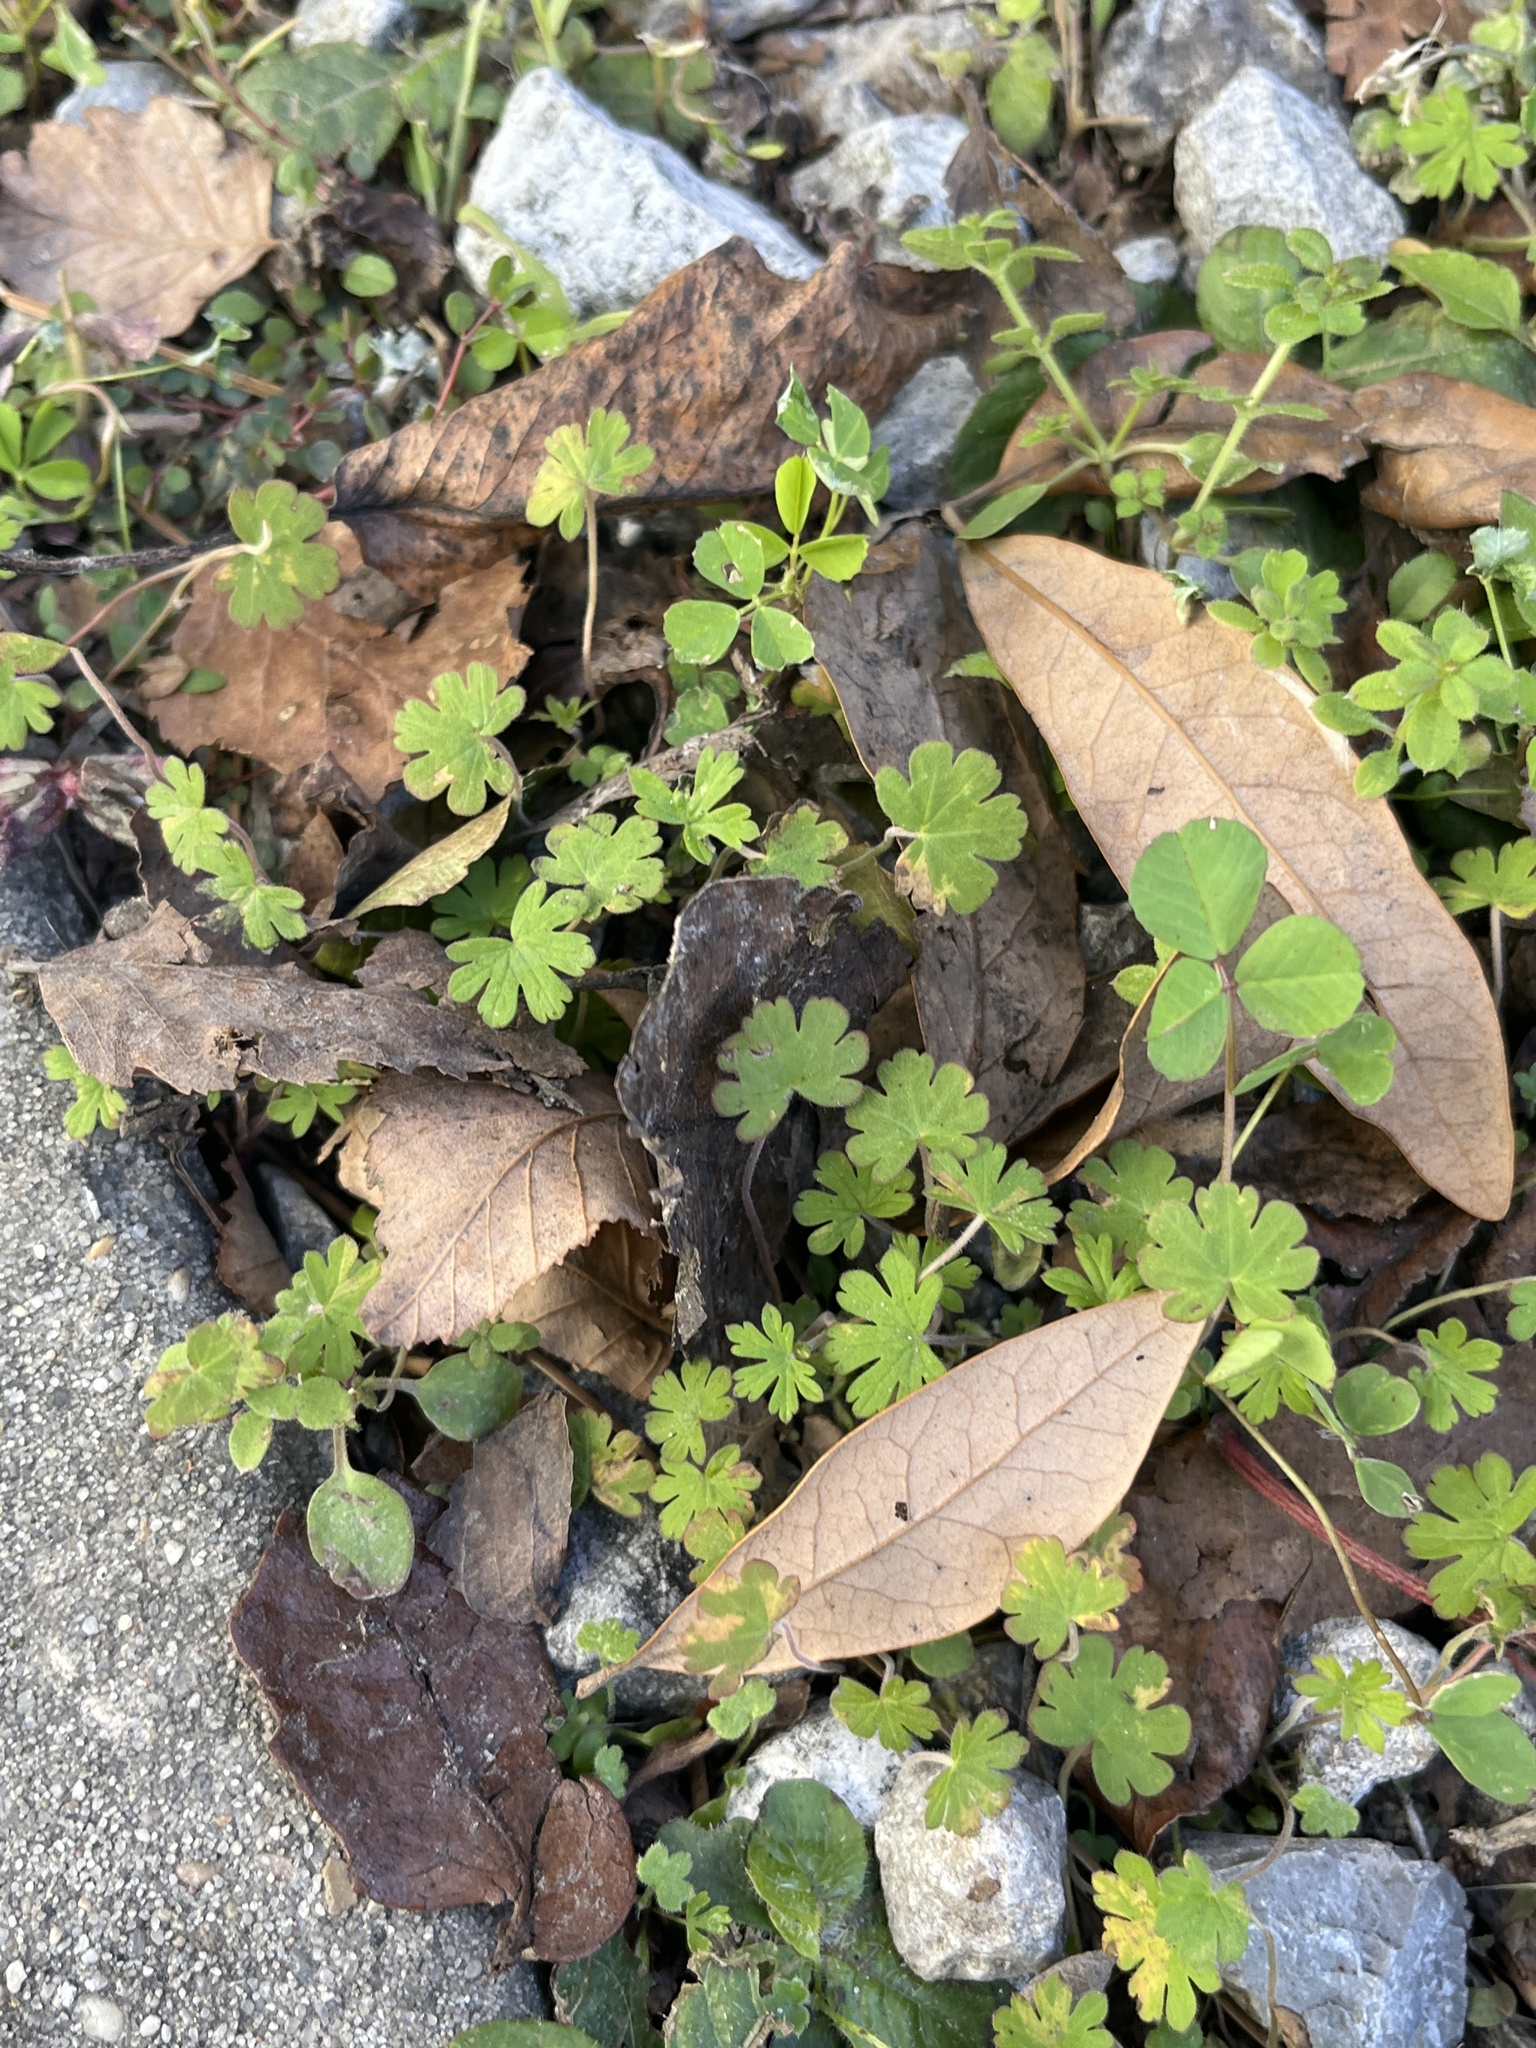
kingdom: Plantae
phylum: Tracheophyta
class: Magnoliopsida
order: Geraniales
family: Geraniaceae
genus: Geranium
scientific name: Geranium carolinianum
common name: Carolina crane's-bill
